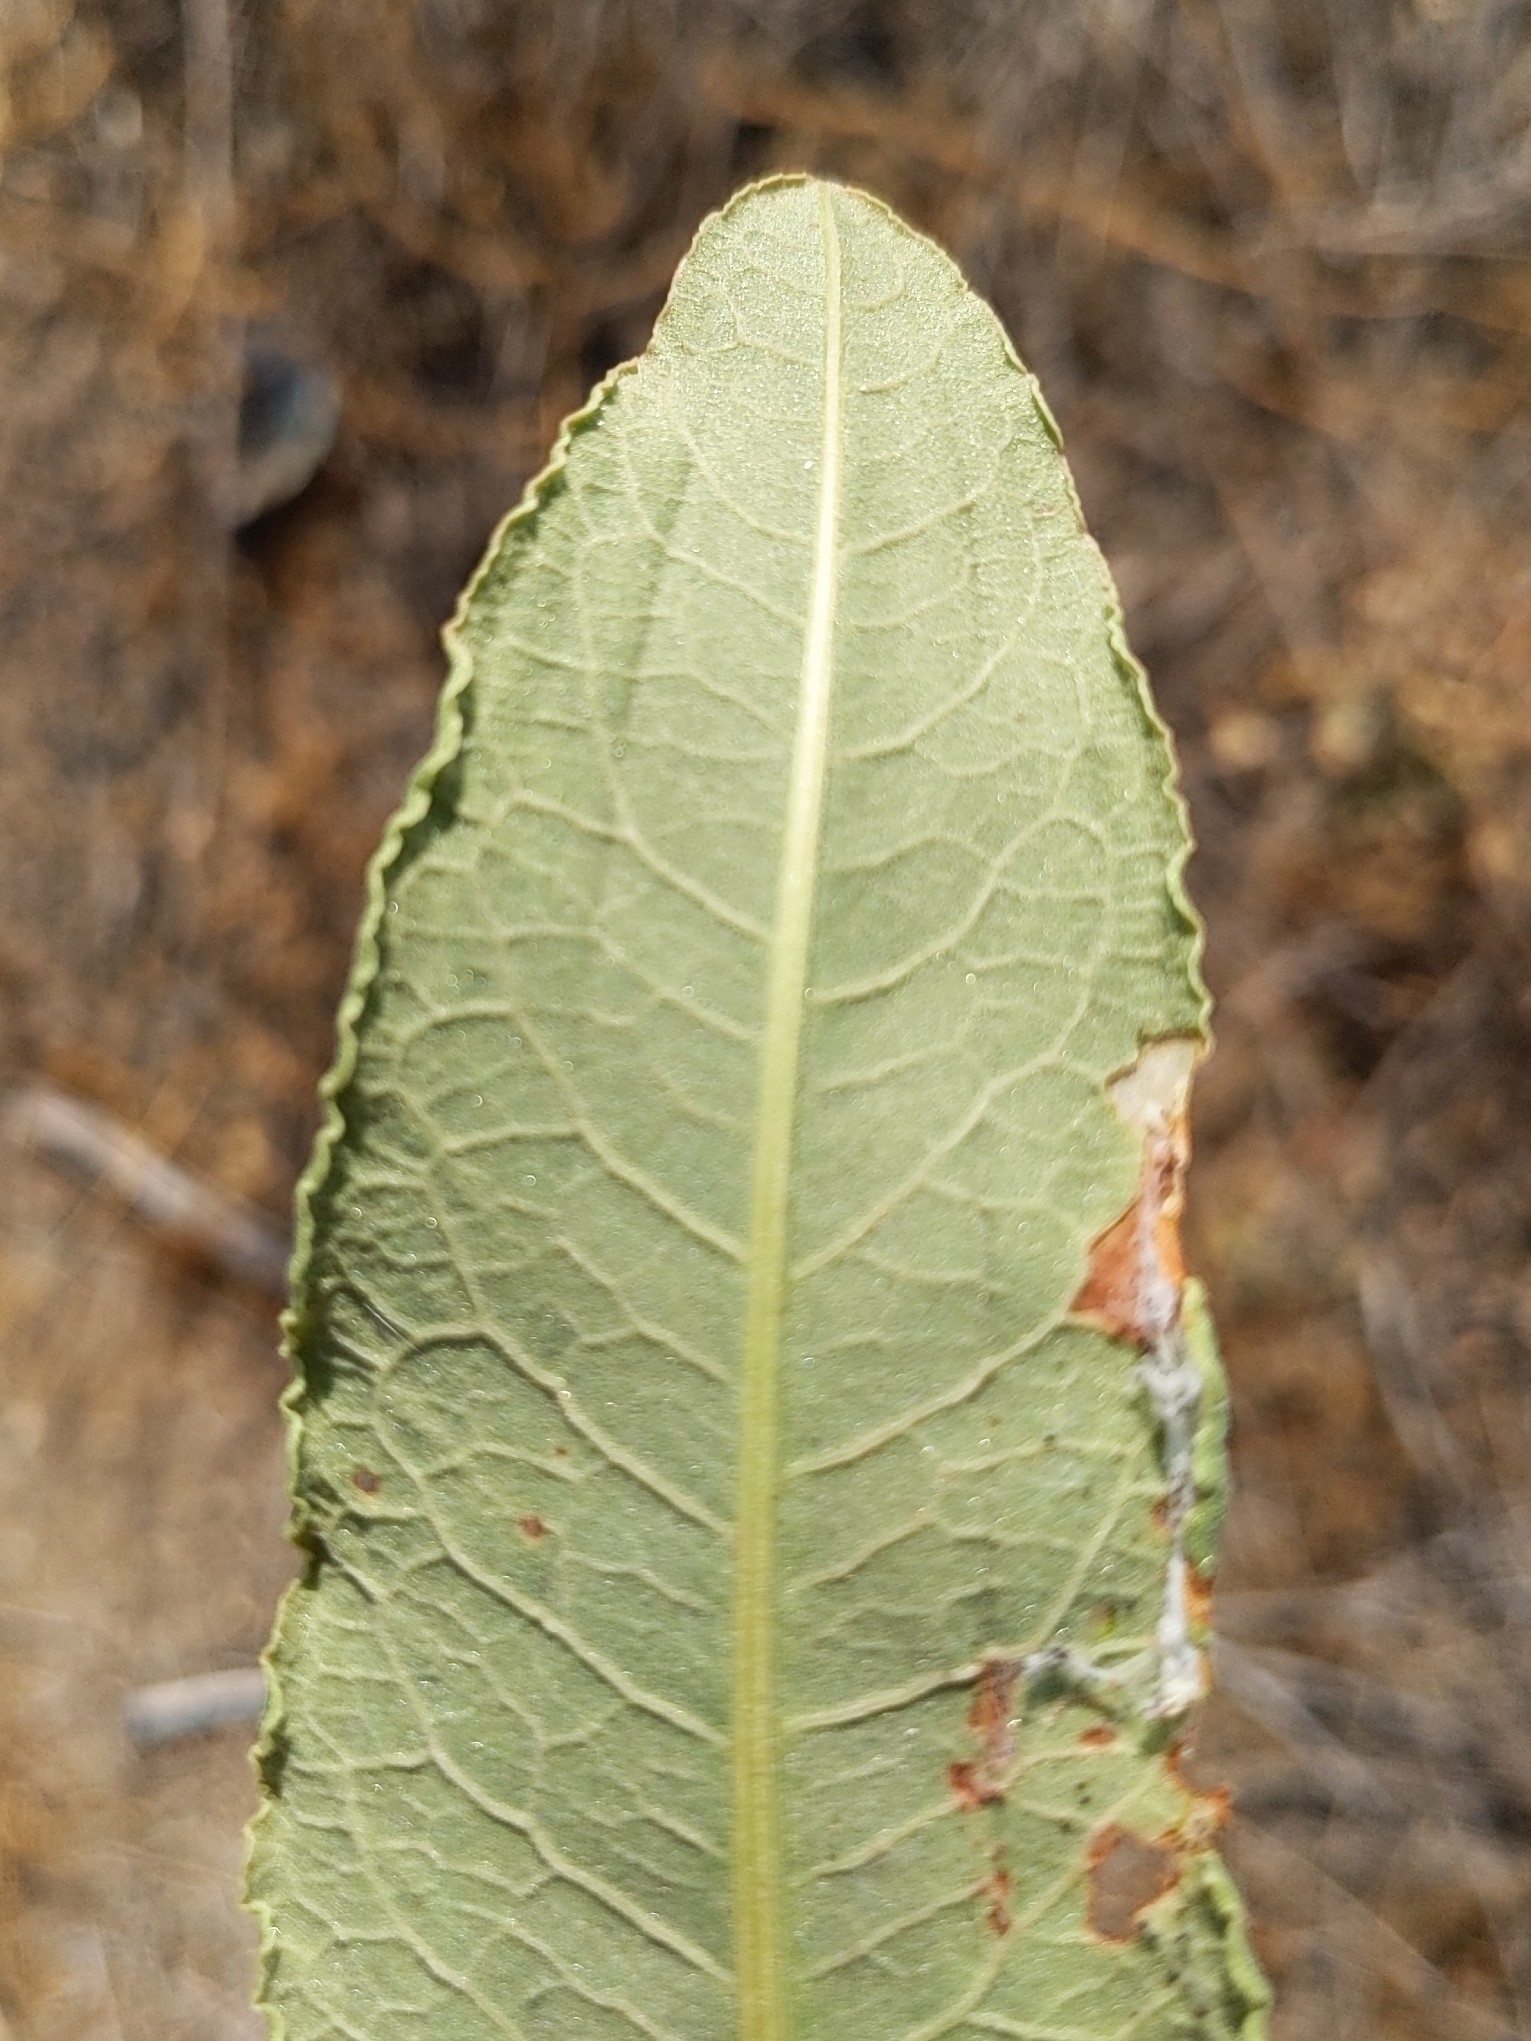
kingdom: Plantae
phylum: Tracheophyta
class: Magnoliopsida
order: Piperales
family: Saururaceae
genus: Anemopsis
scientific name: Anemopsis californica
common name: Apache-beads
